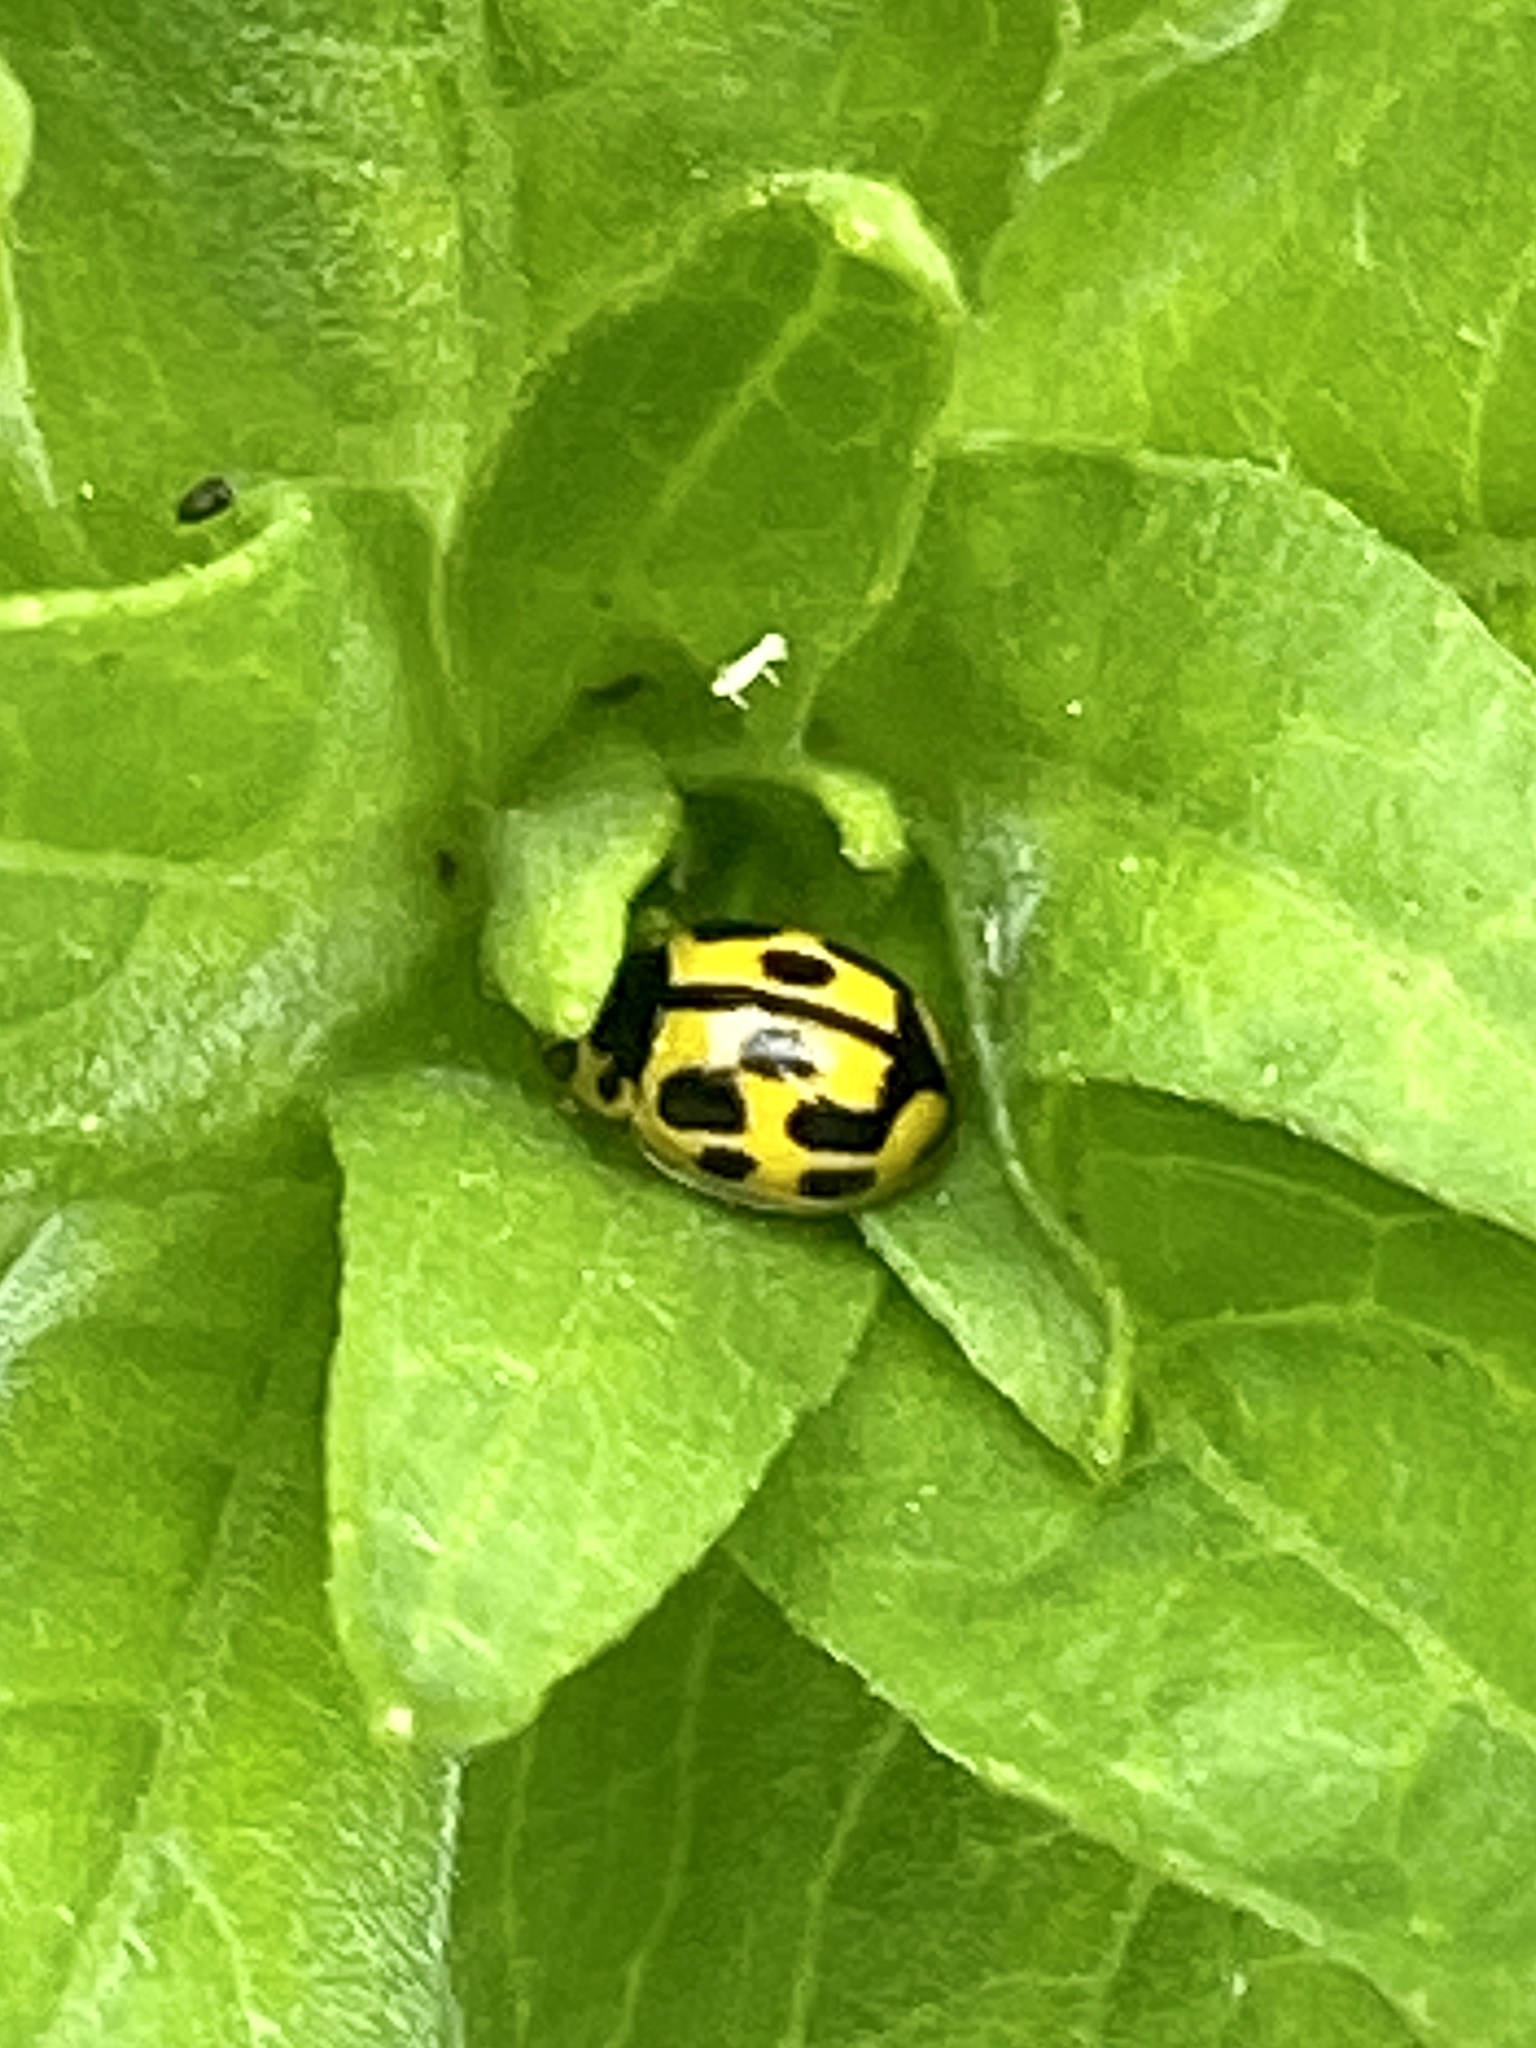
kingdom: Animalia
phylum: Arthropoda
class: Insecta
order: Coleoptera
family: Coccinellidae
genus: Propylaea
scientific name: Propylaea quatuordecimpunctata
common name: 14-spotted ladybird beetle
